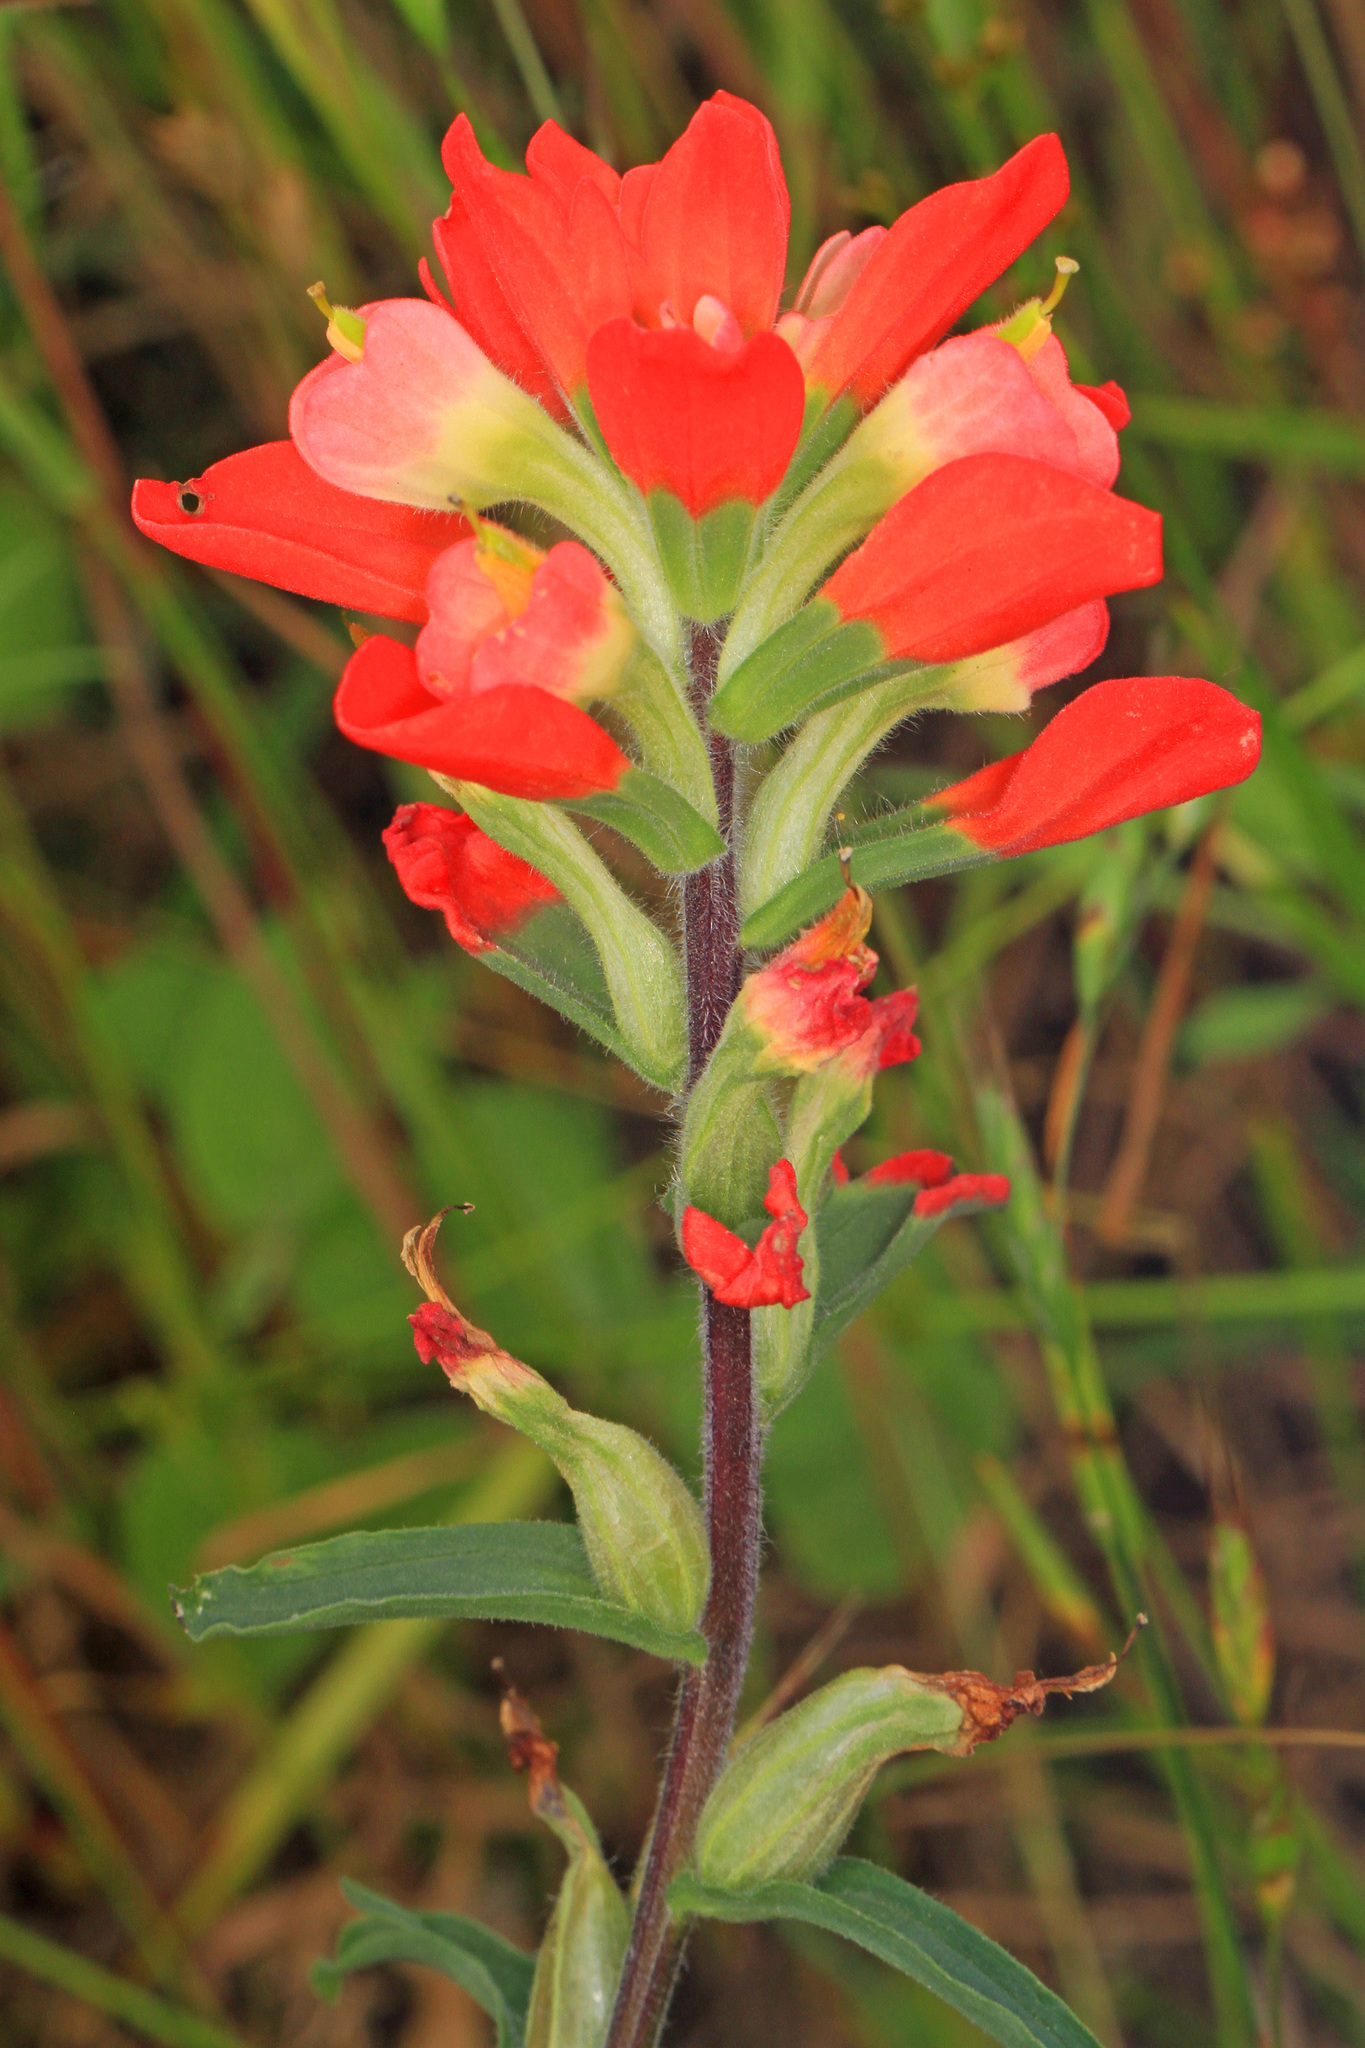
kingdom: Plantae
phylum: Tracheophyta
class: Magnoliopsida
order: Lamiales
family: Orobanchaceae
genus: Castilleja
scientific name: Castilleja indivisa
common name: Texas paintbrush
